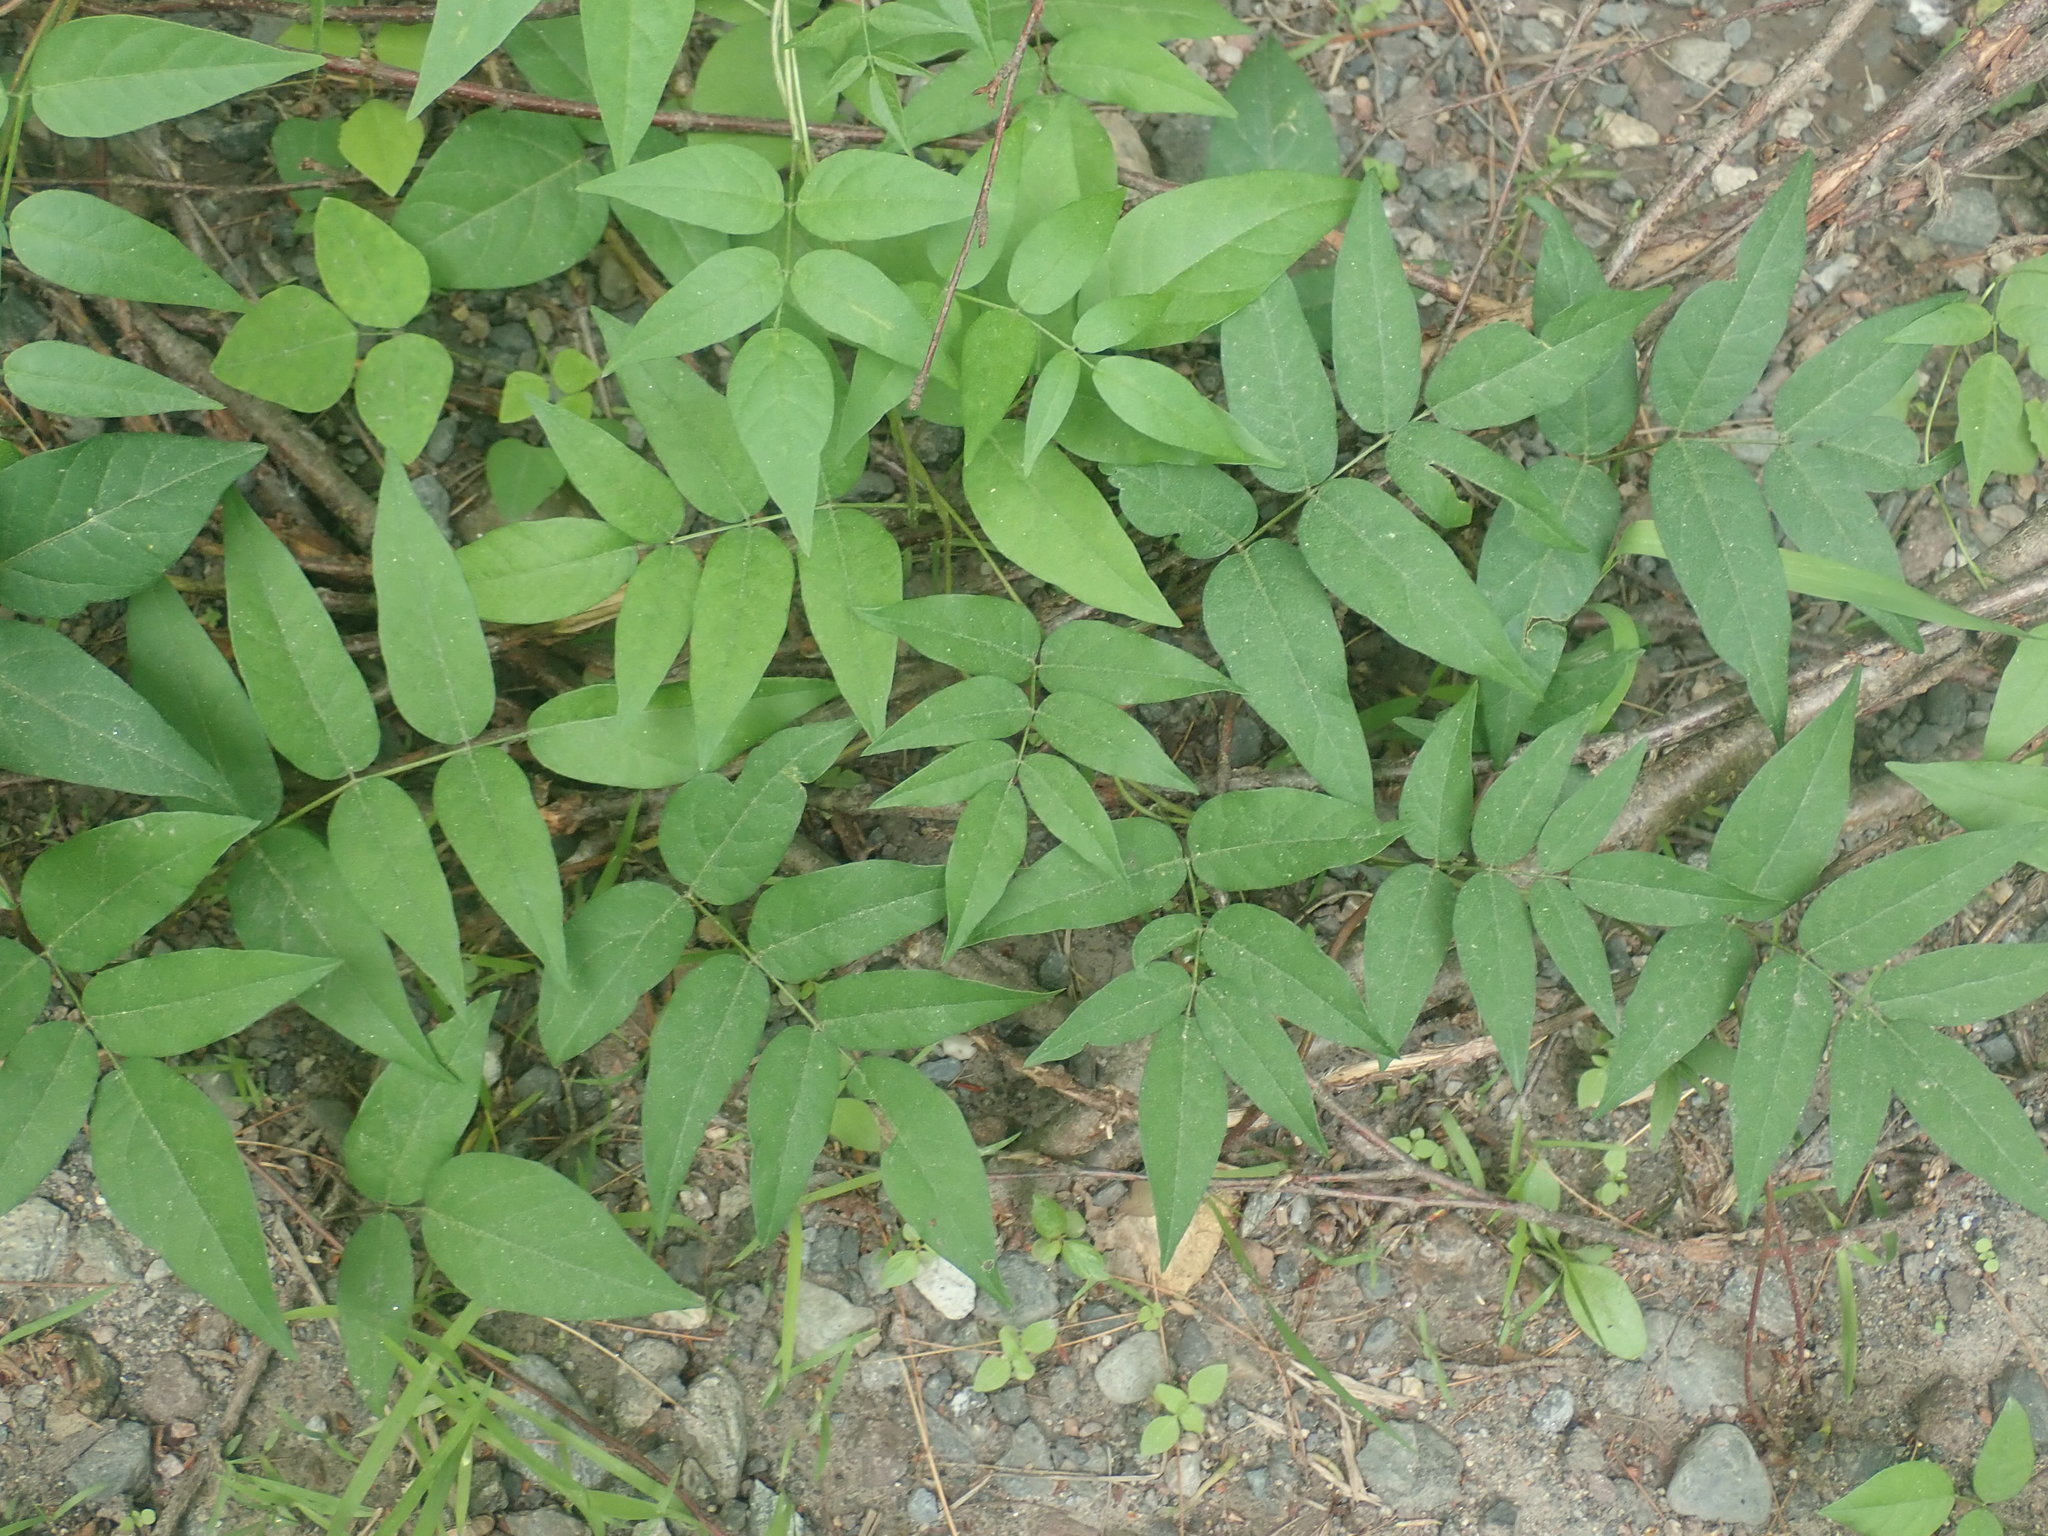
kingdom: Plantae
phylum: Tracheophyta
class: Magnoliopsida
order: Fabales
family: Fabaceae
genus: Apios
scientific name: Apios americana
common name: American potato-bean
